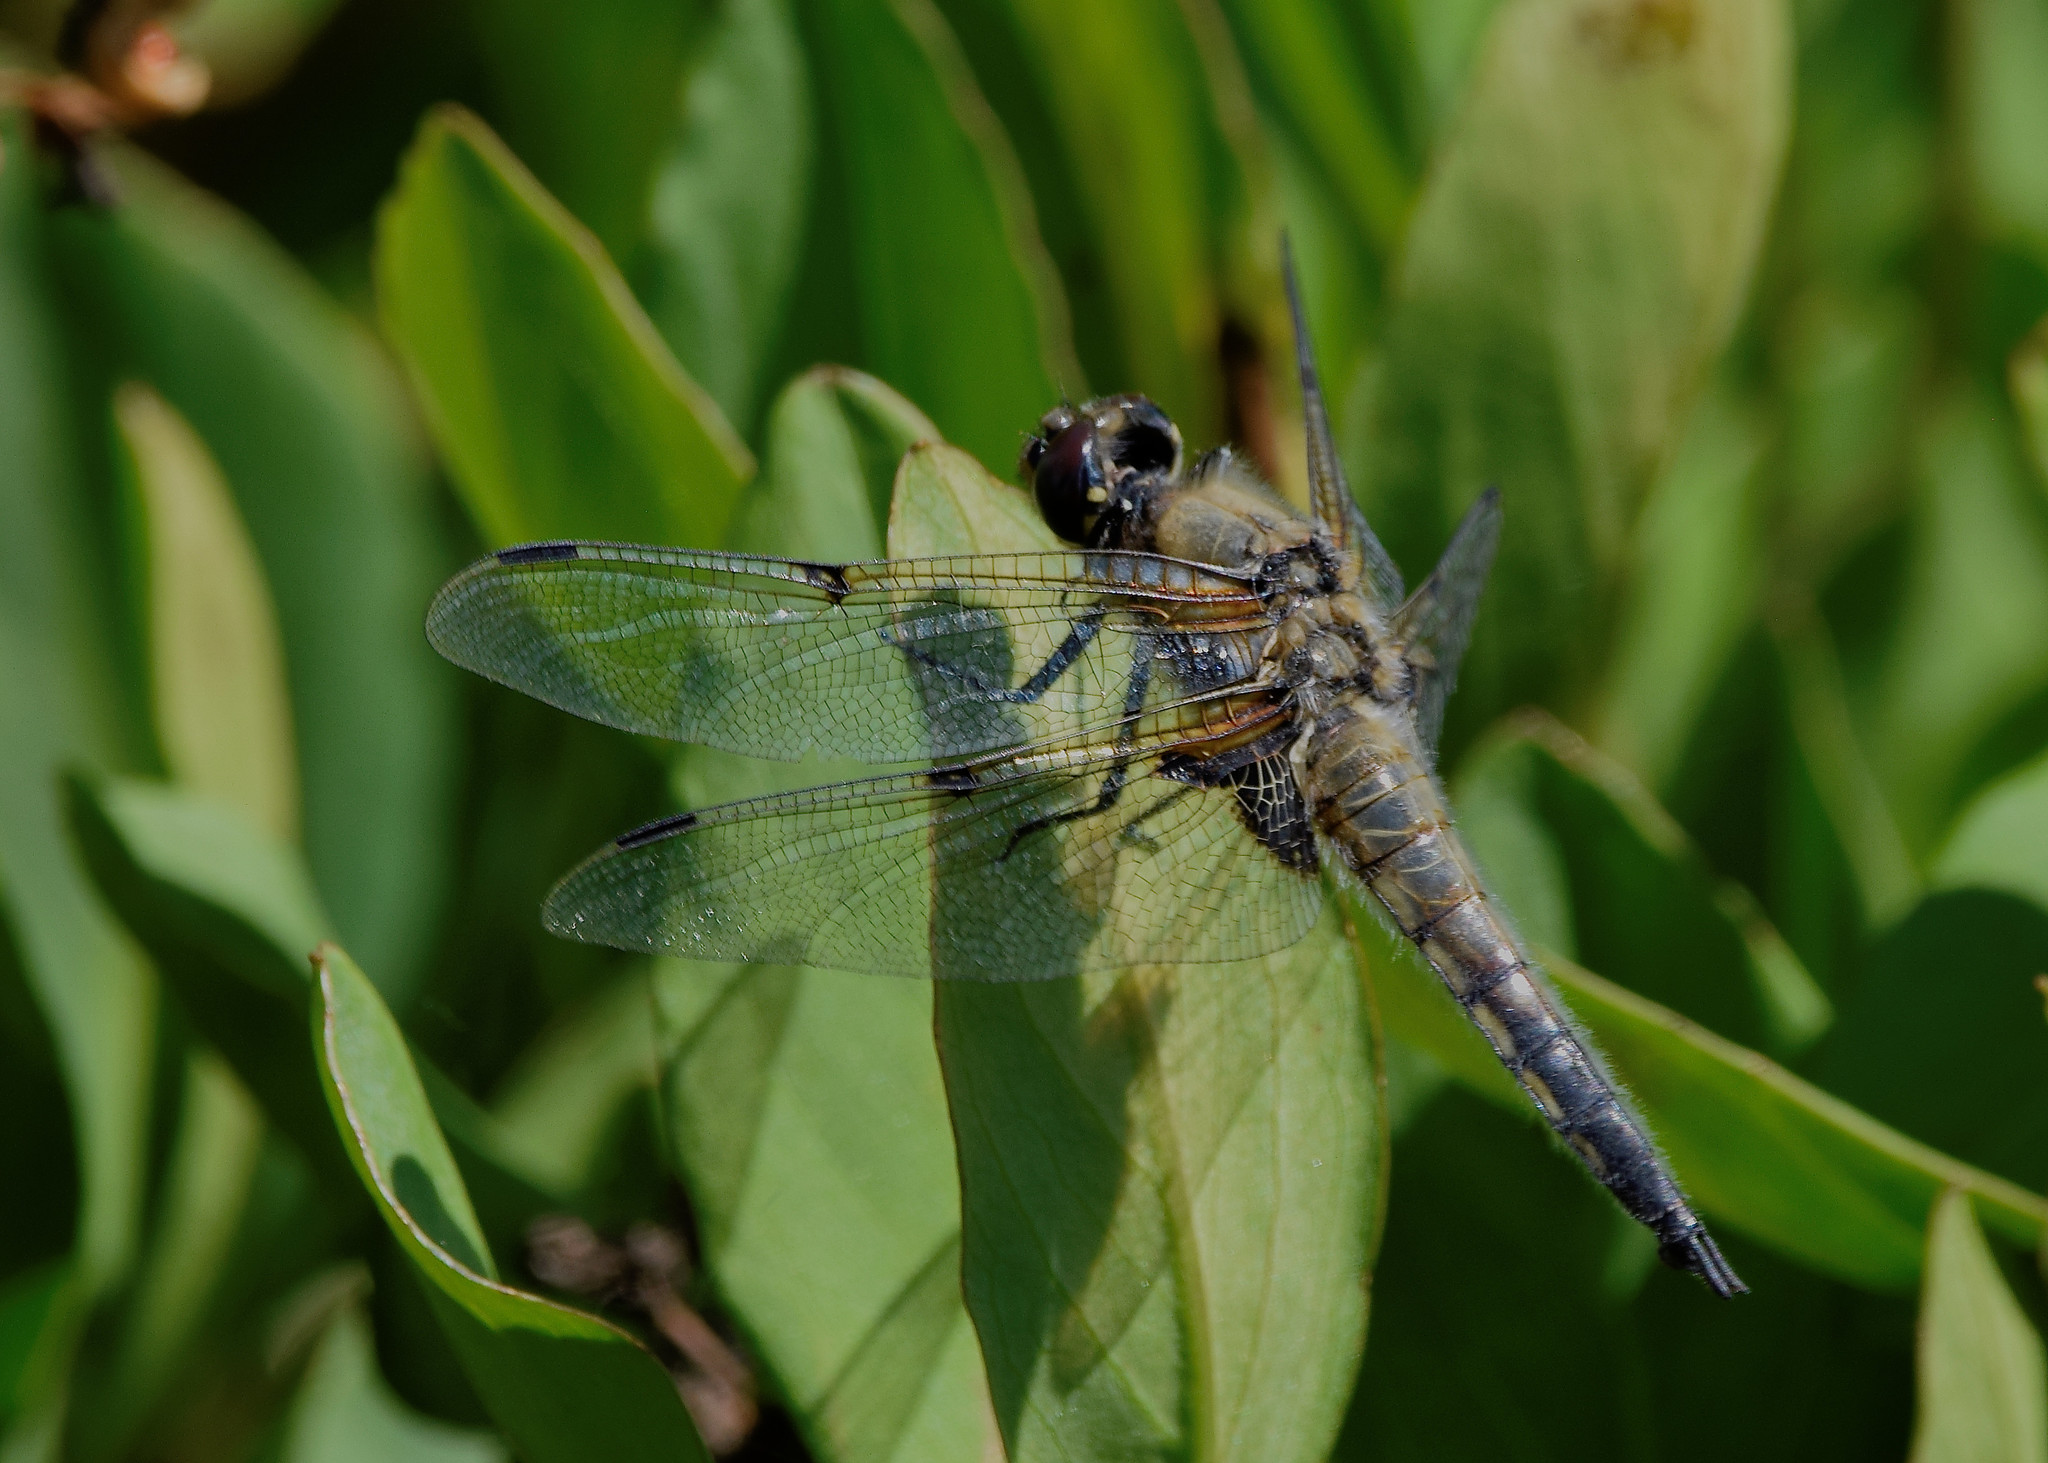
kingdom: Animalia
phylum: Arthropoda
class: Insecta
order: Odonata
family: Libellulidae
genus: Libellula
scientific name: Libellula quadrimaculata
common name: Four-spotted chaser
